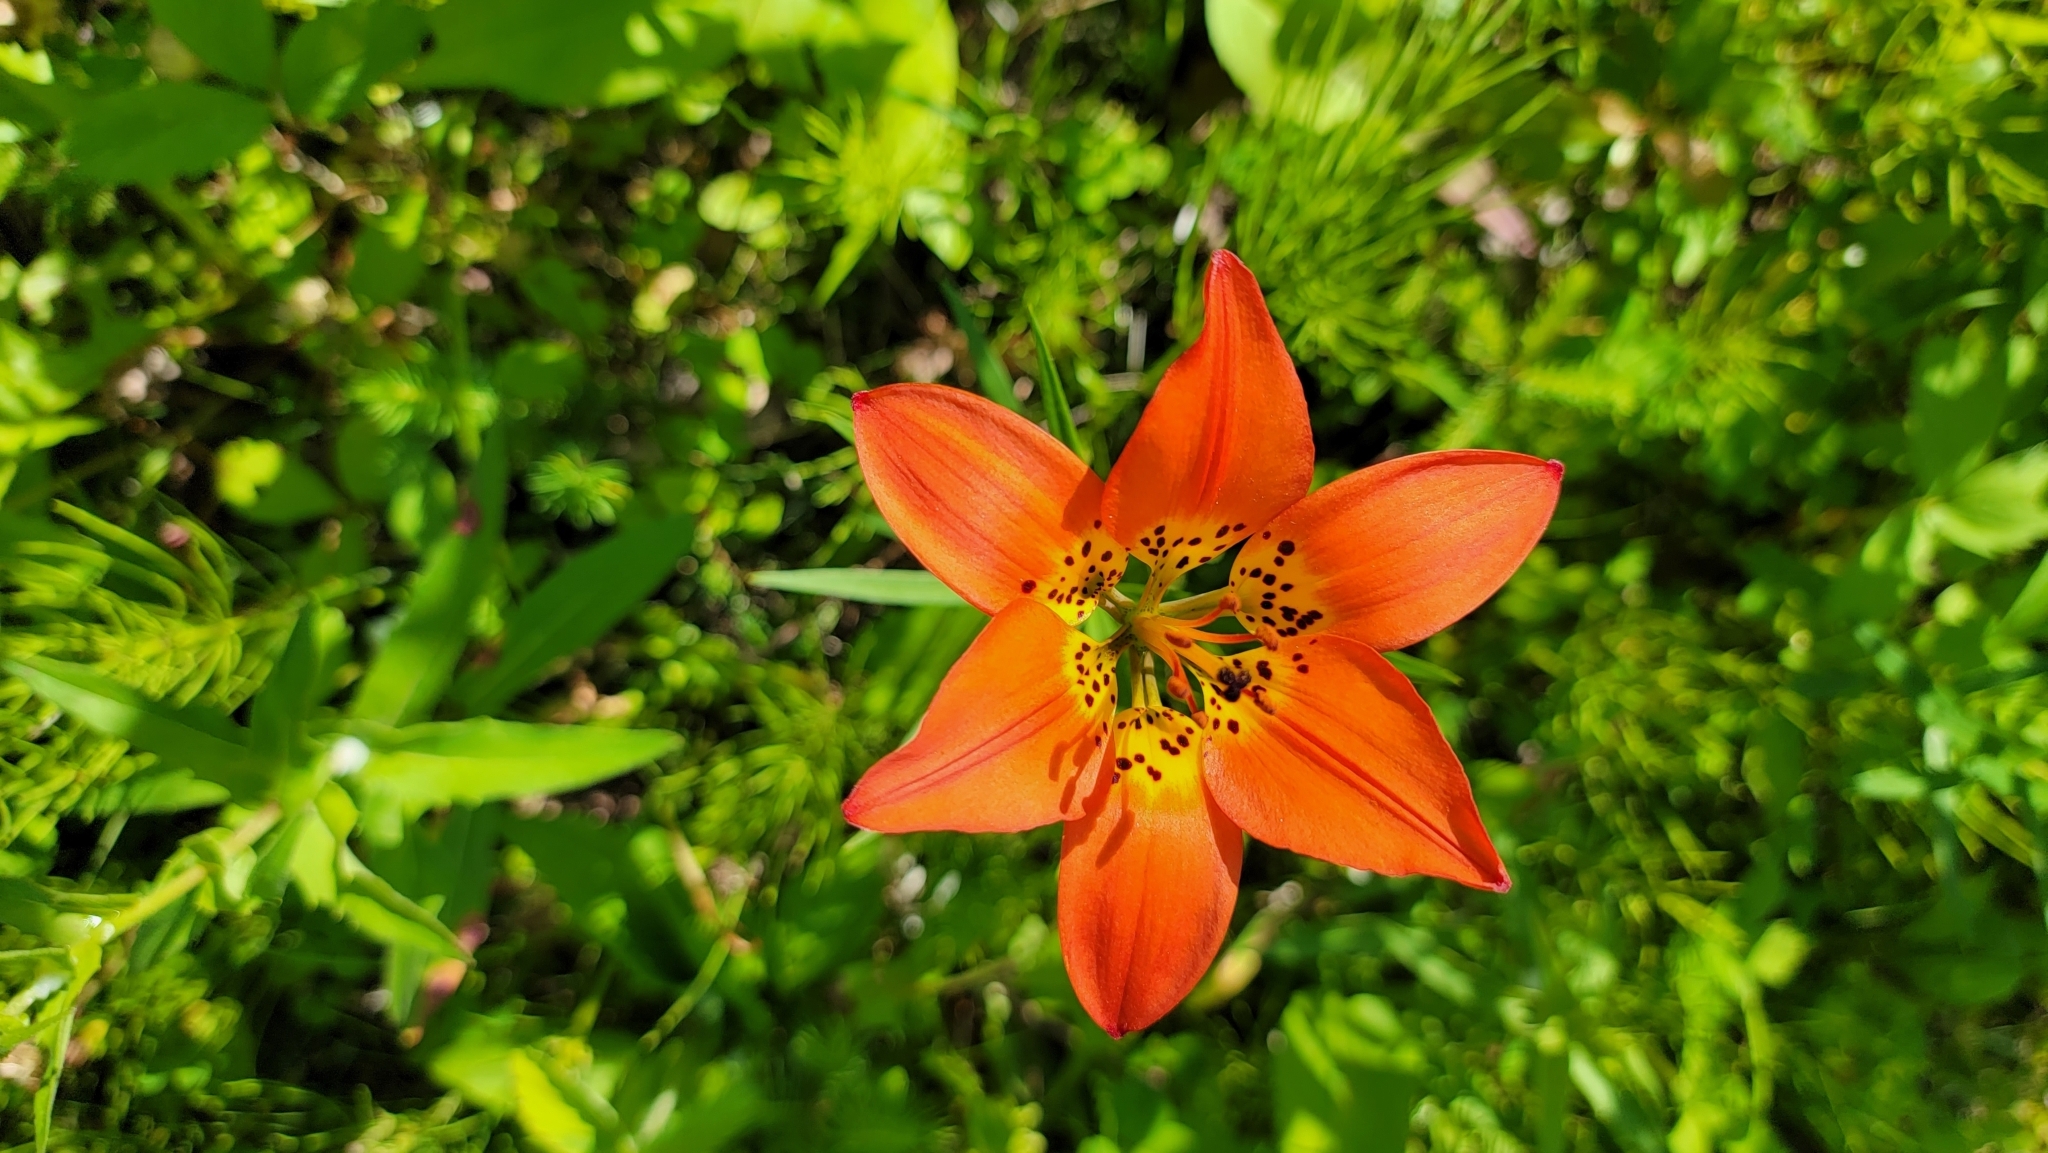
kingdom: Plantae
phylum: Tracheophyta
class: Liliopsida
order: Liliales
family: Liliaceae
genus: Lilium
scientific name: Lilium philadelphicum
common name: Red lily
